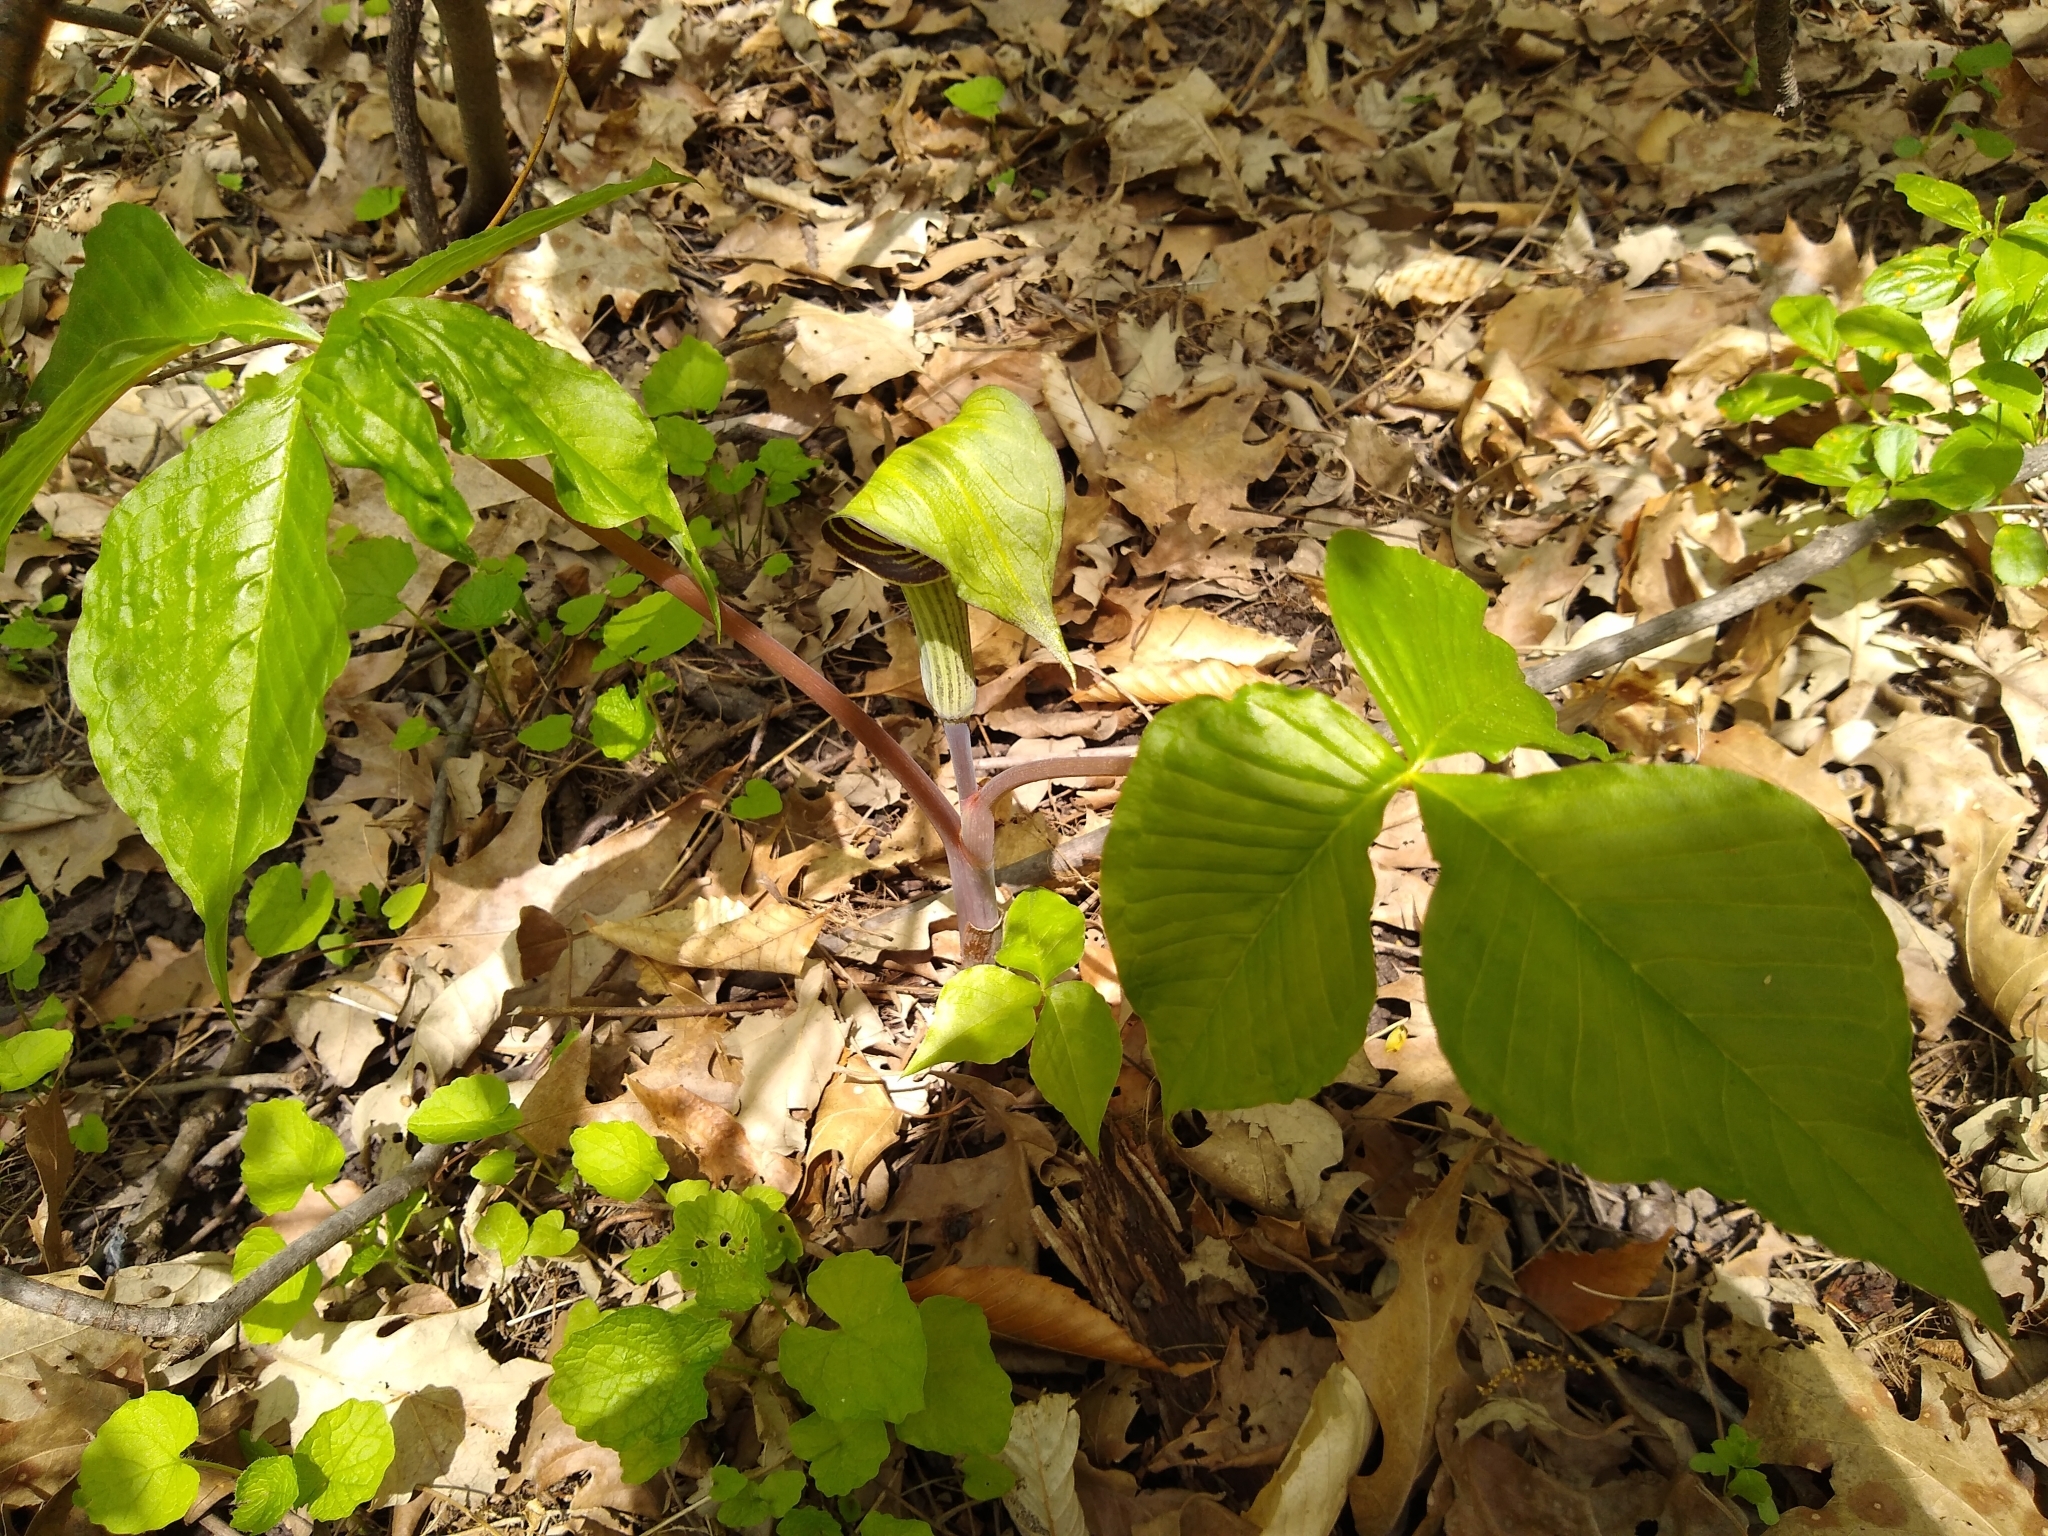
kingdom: Plantae
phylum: Tracheophyta
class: Liliopsida
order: Alismatales
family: Araceae
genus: Arisaema
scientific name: Arisaema triphyllum
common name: Jack-in-the-pulpit
